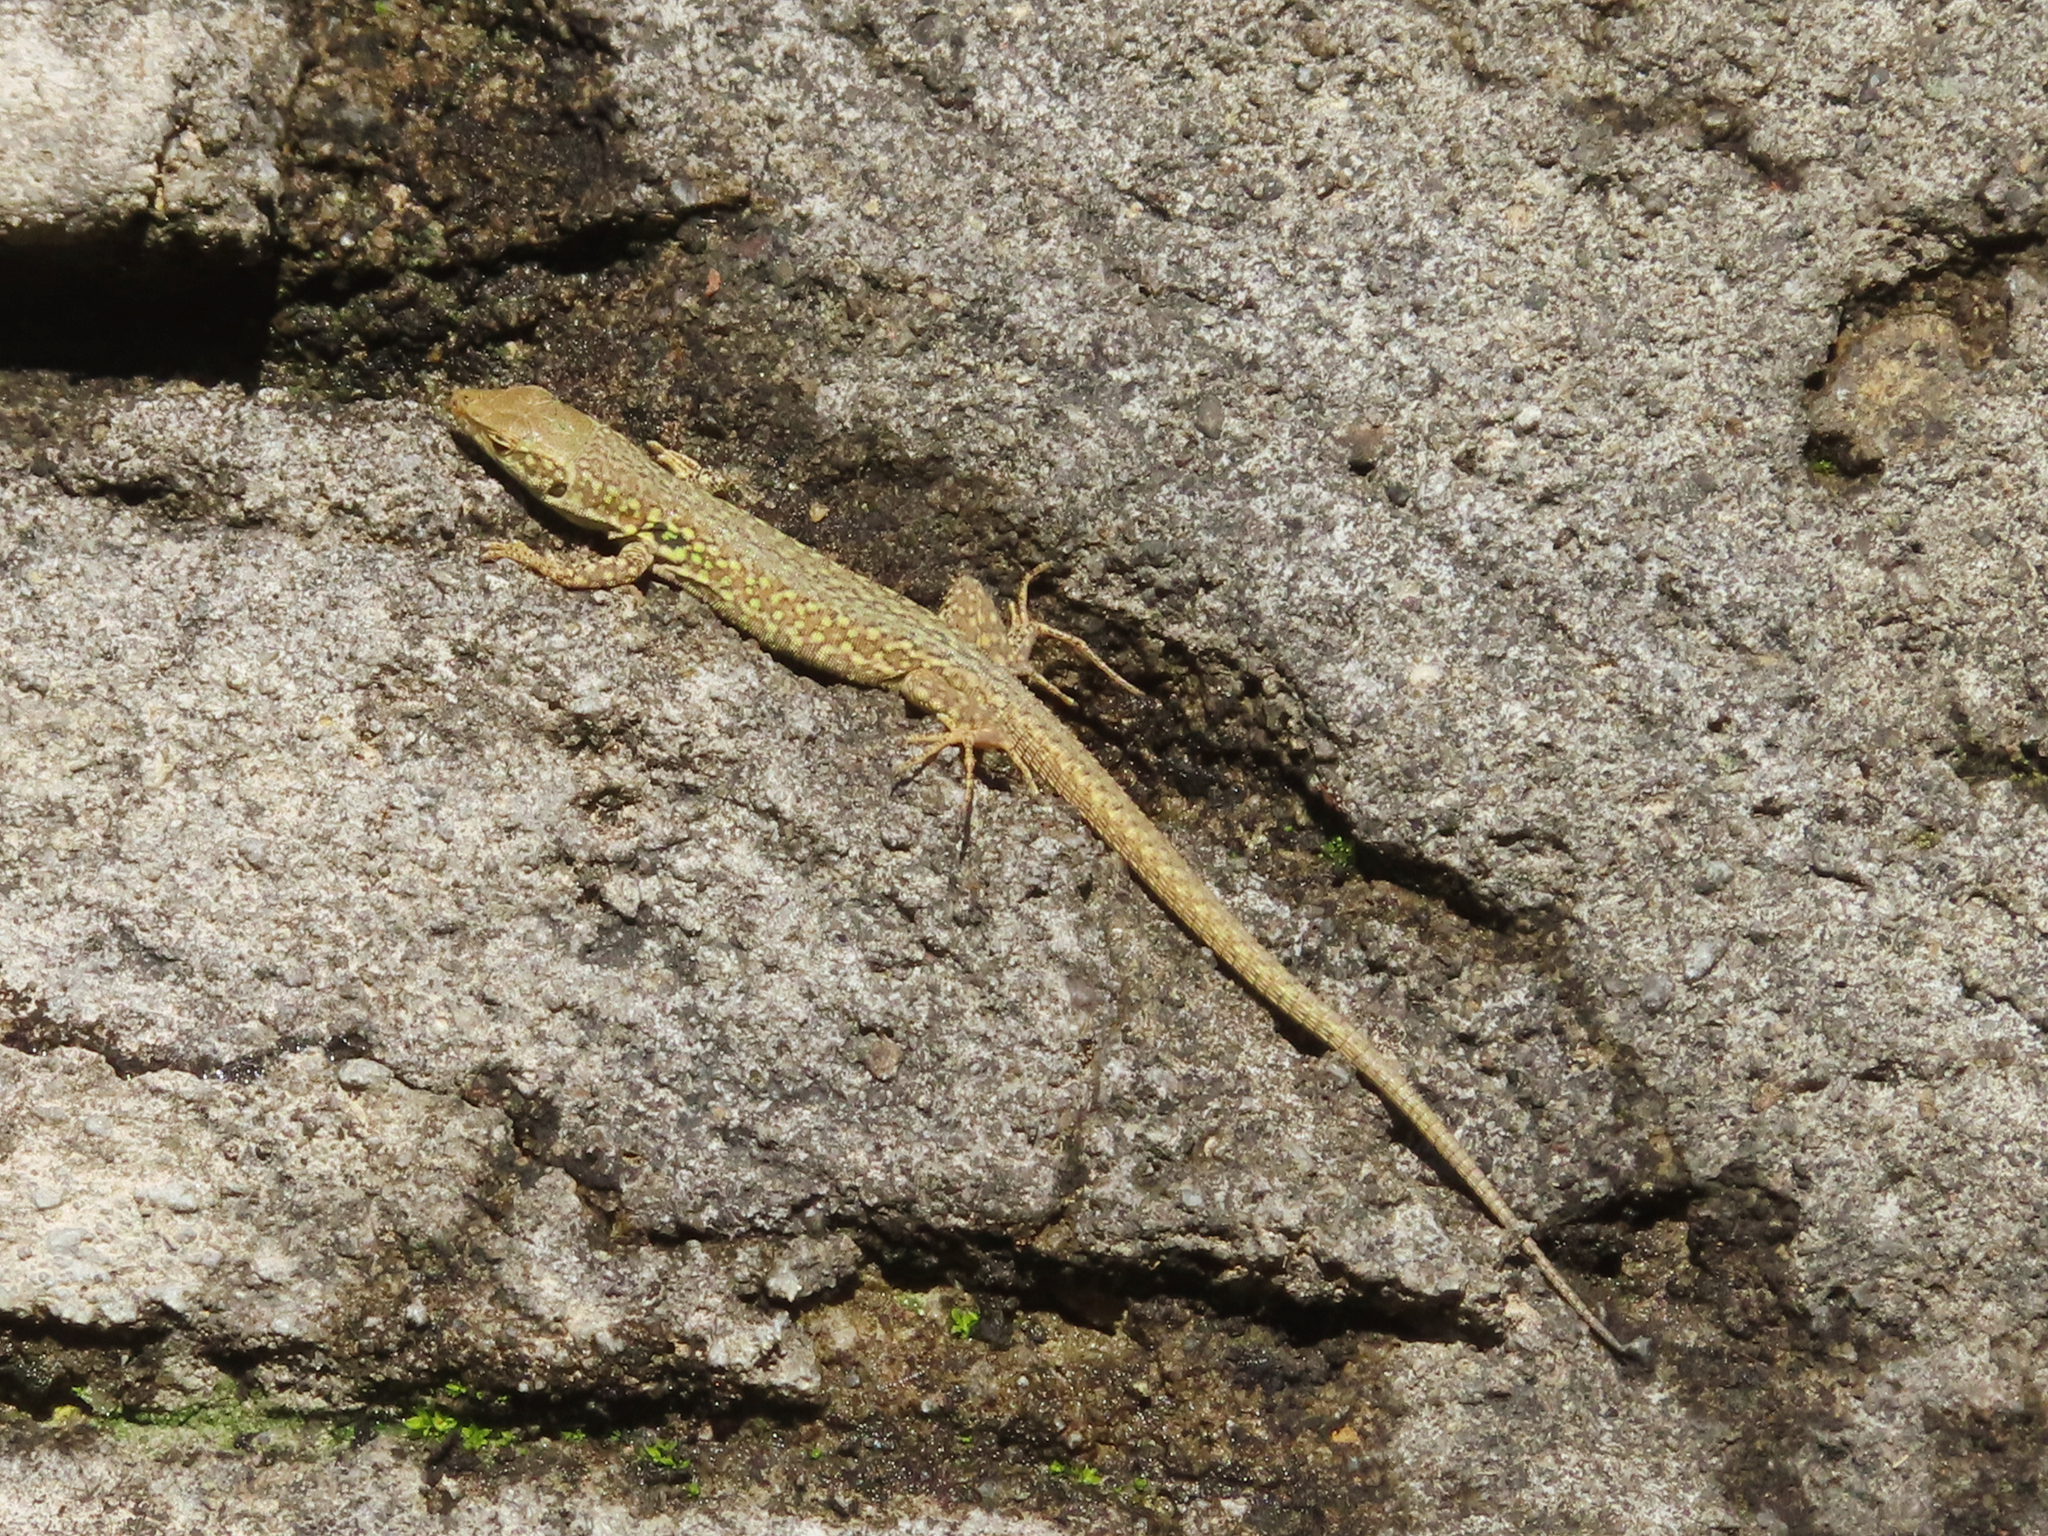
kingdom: Animalia
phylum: Chordata
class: Squamata
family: Lacertidae
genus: Podarcis
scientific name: Podarcis siculus
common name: Italian wall lizard
